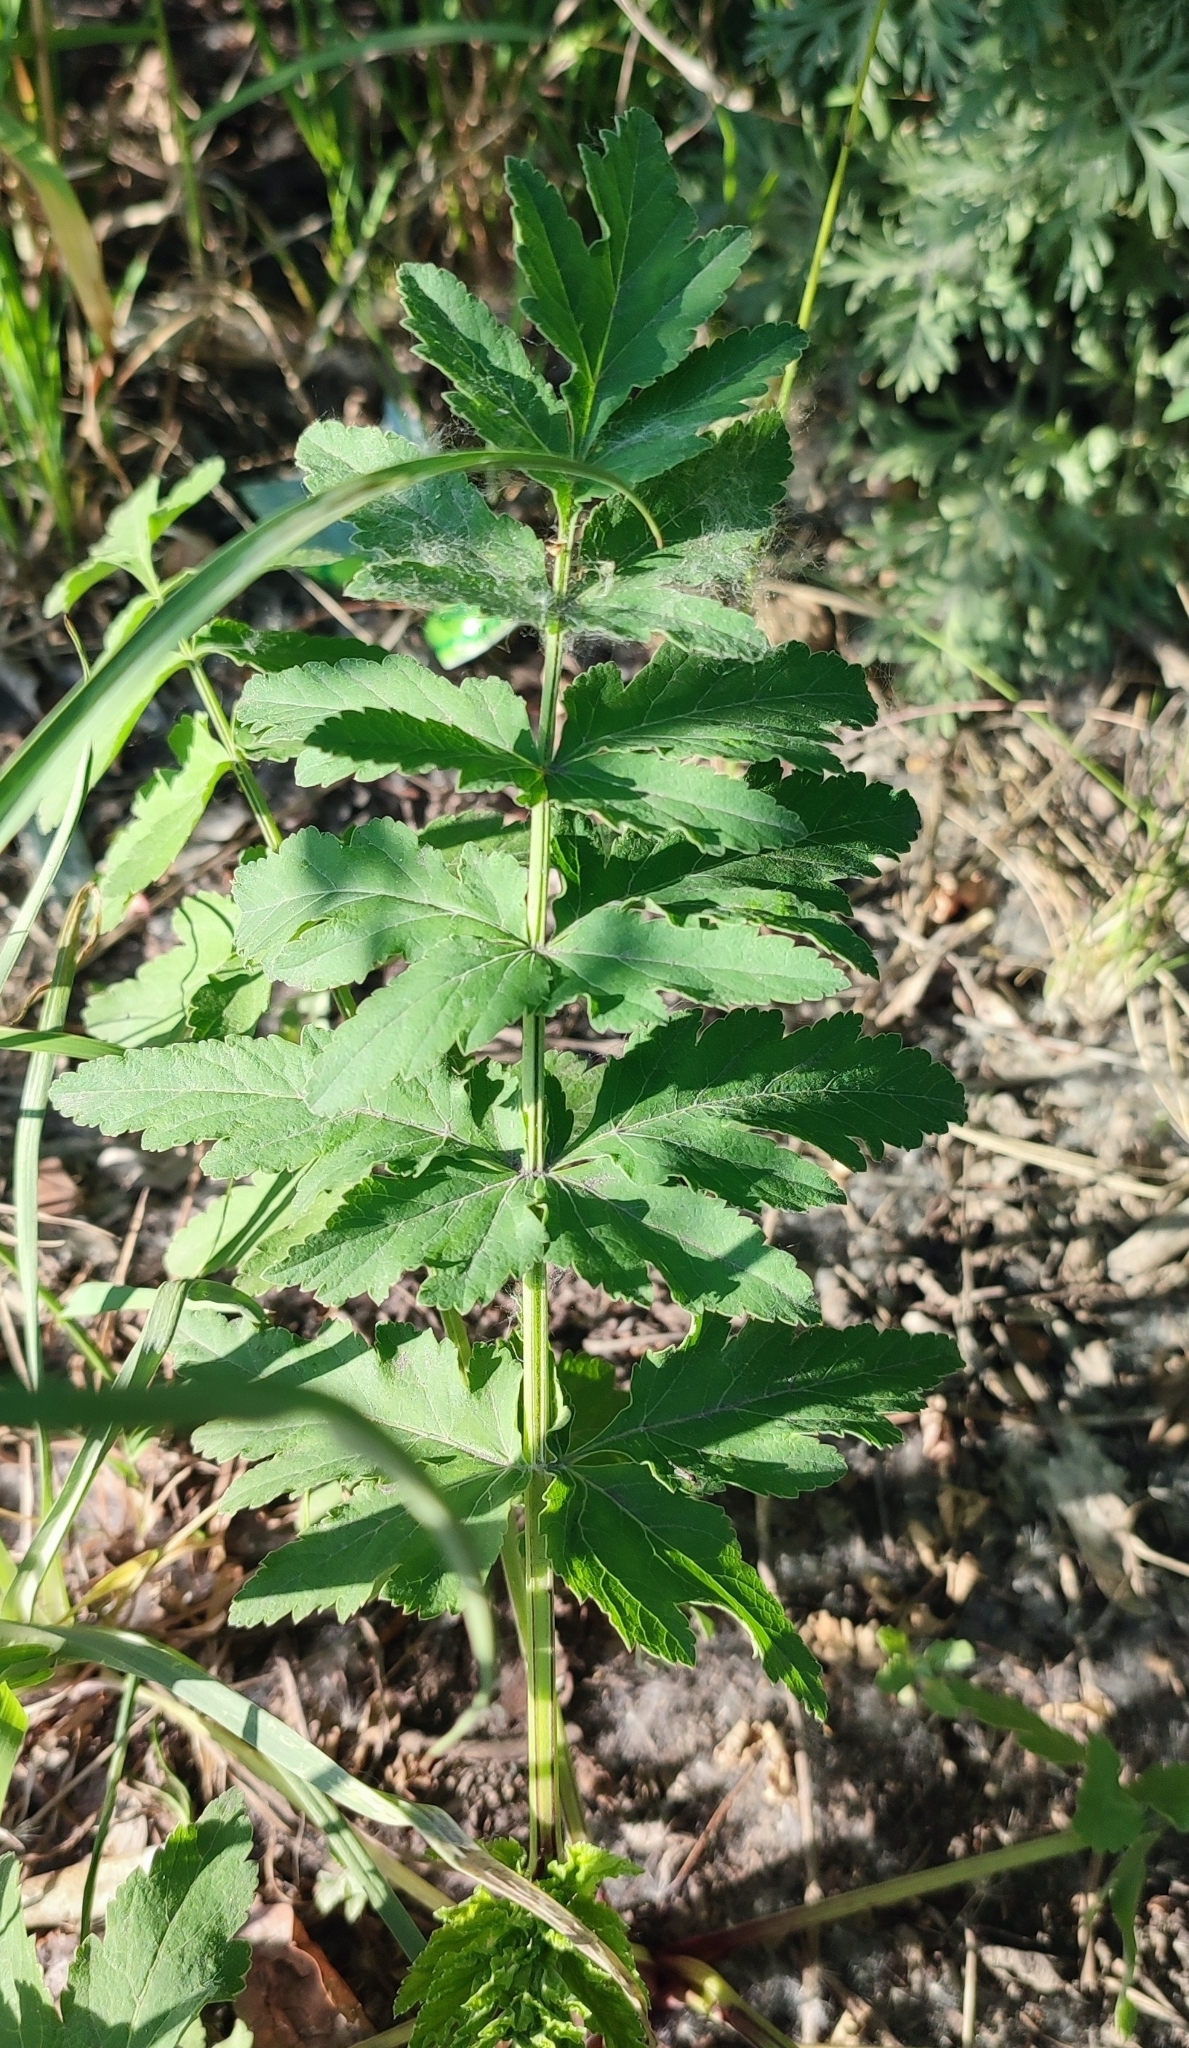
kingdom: Plantae
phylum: Tracheophyta
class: Magnoliopsida
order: Apiales
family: Apiaceae
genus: Pastinaca
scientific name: Pastinaca sativa
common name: Wild parsnip
